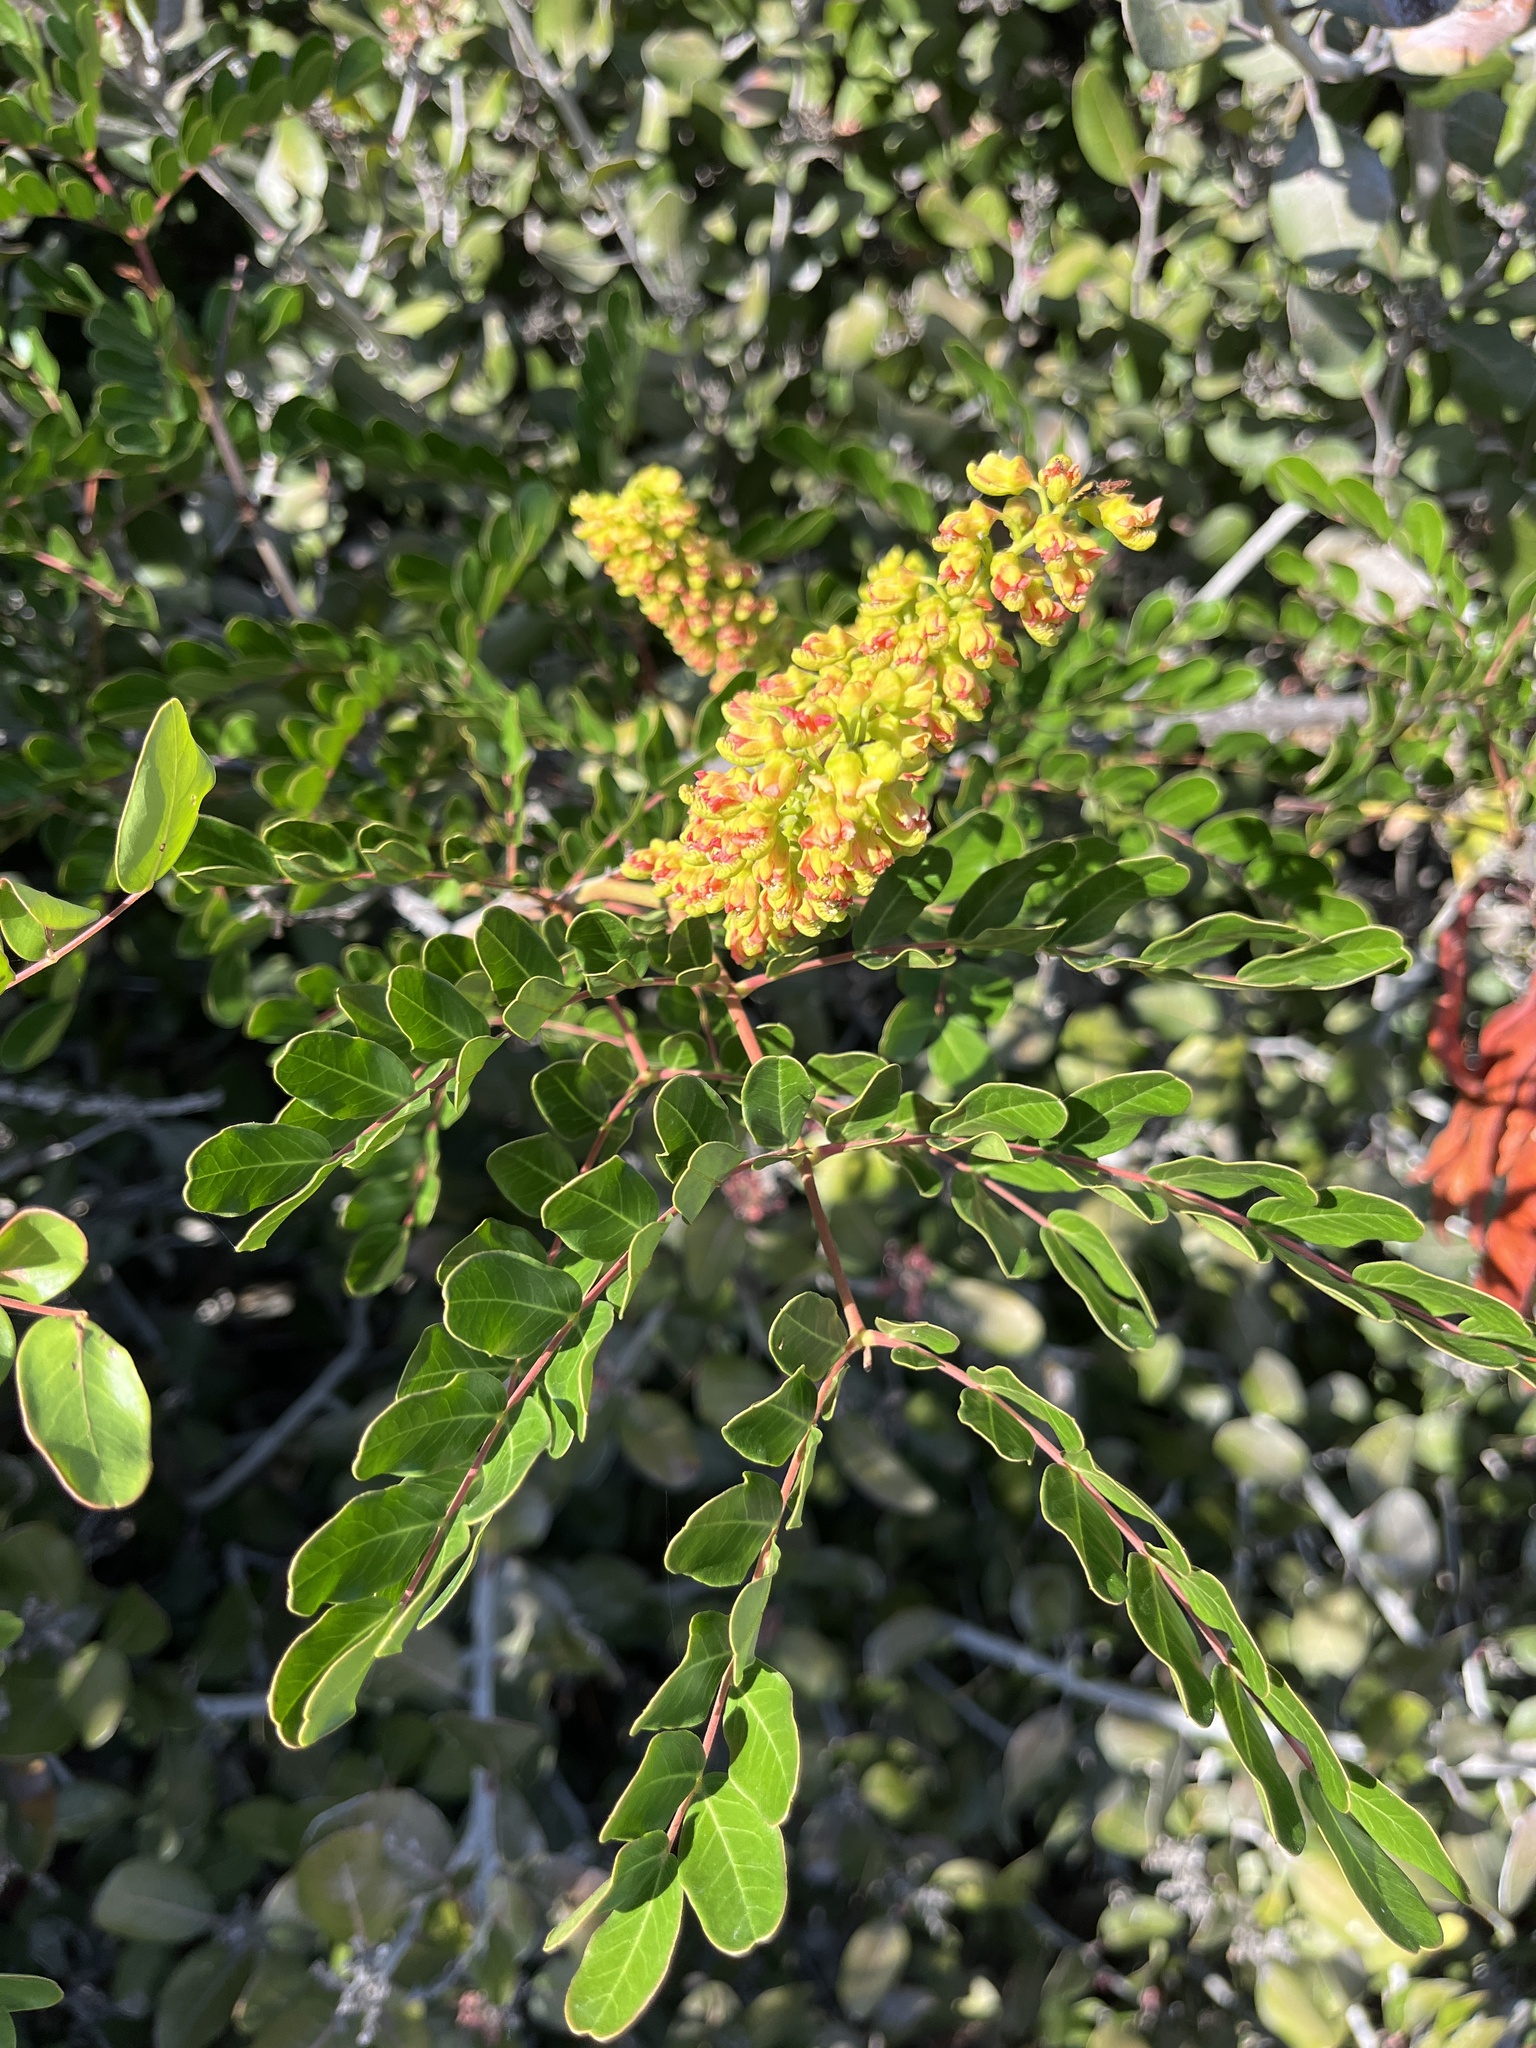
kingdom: Plantae
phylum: Tracheophyta
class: Magnoliopsida
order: Fabales
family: Fabaceae
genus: Tara
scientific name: Tara spinosa
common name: Spiny holdback
